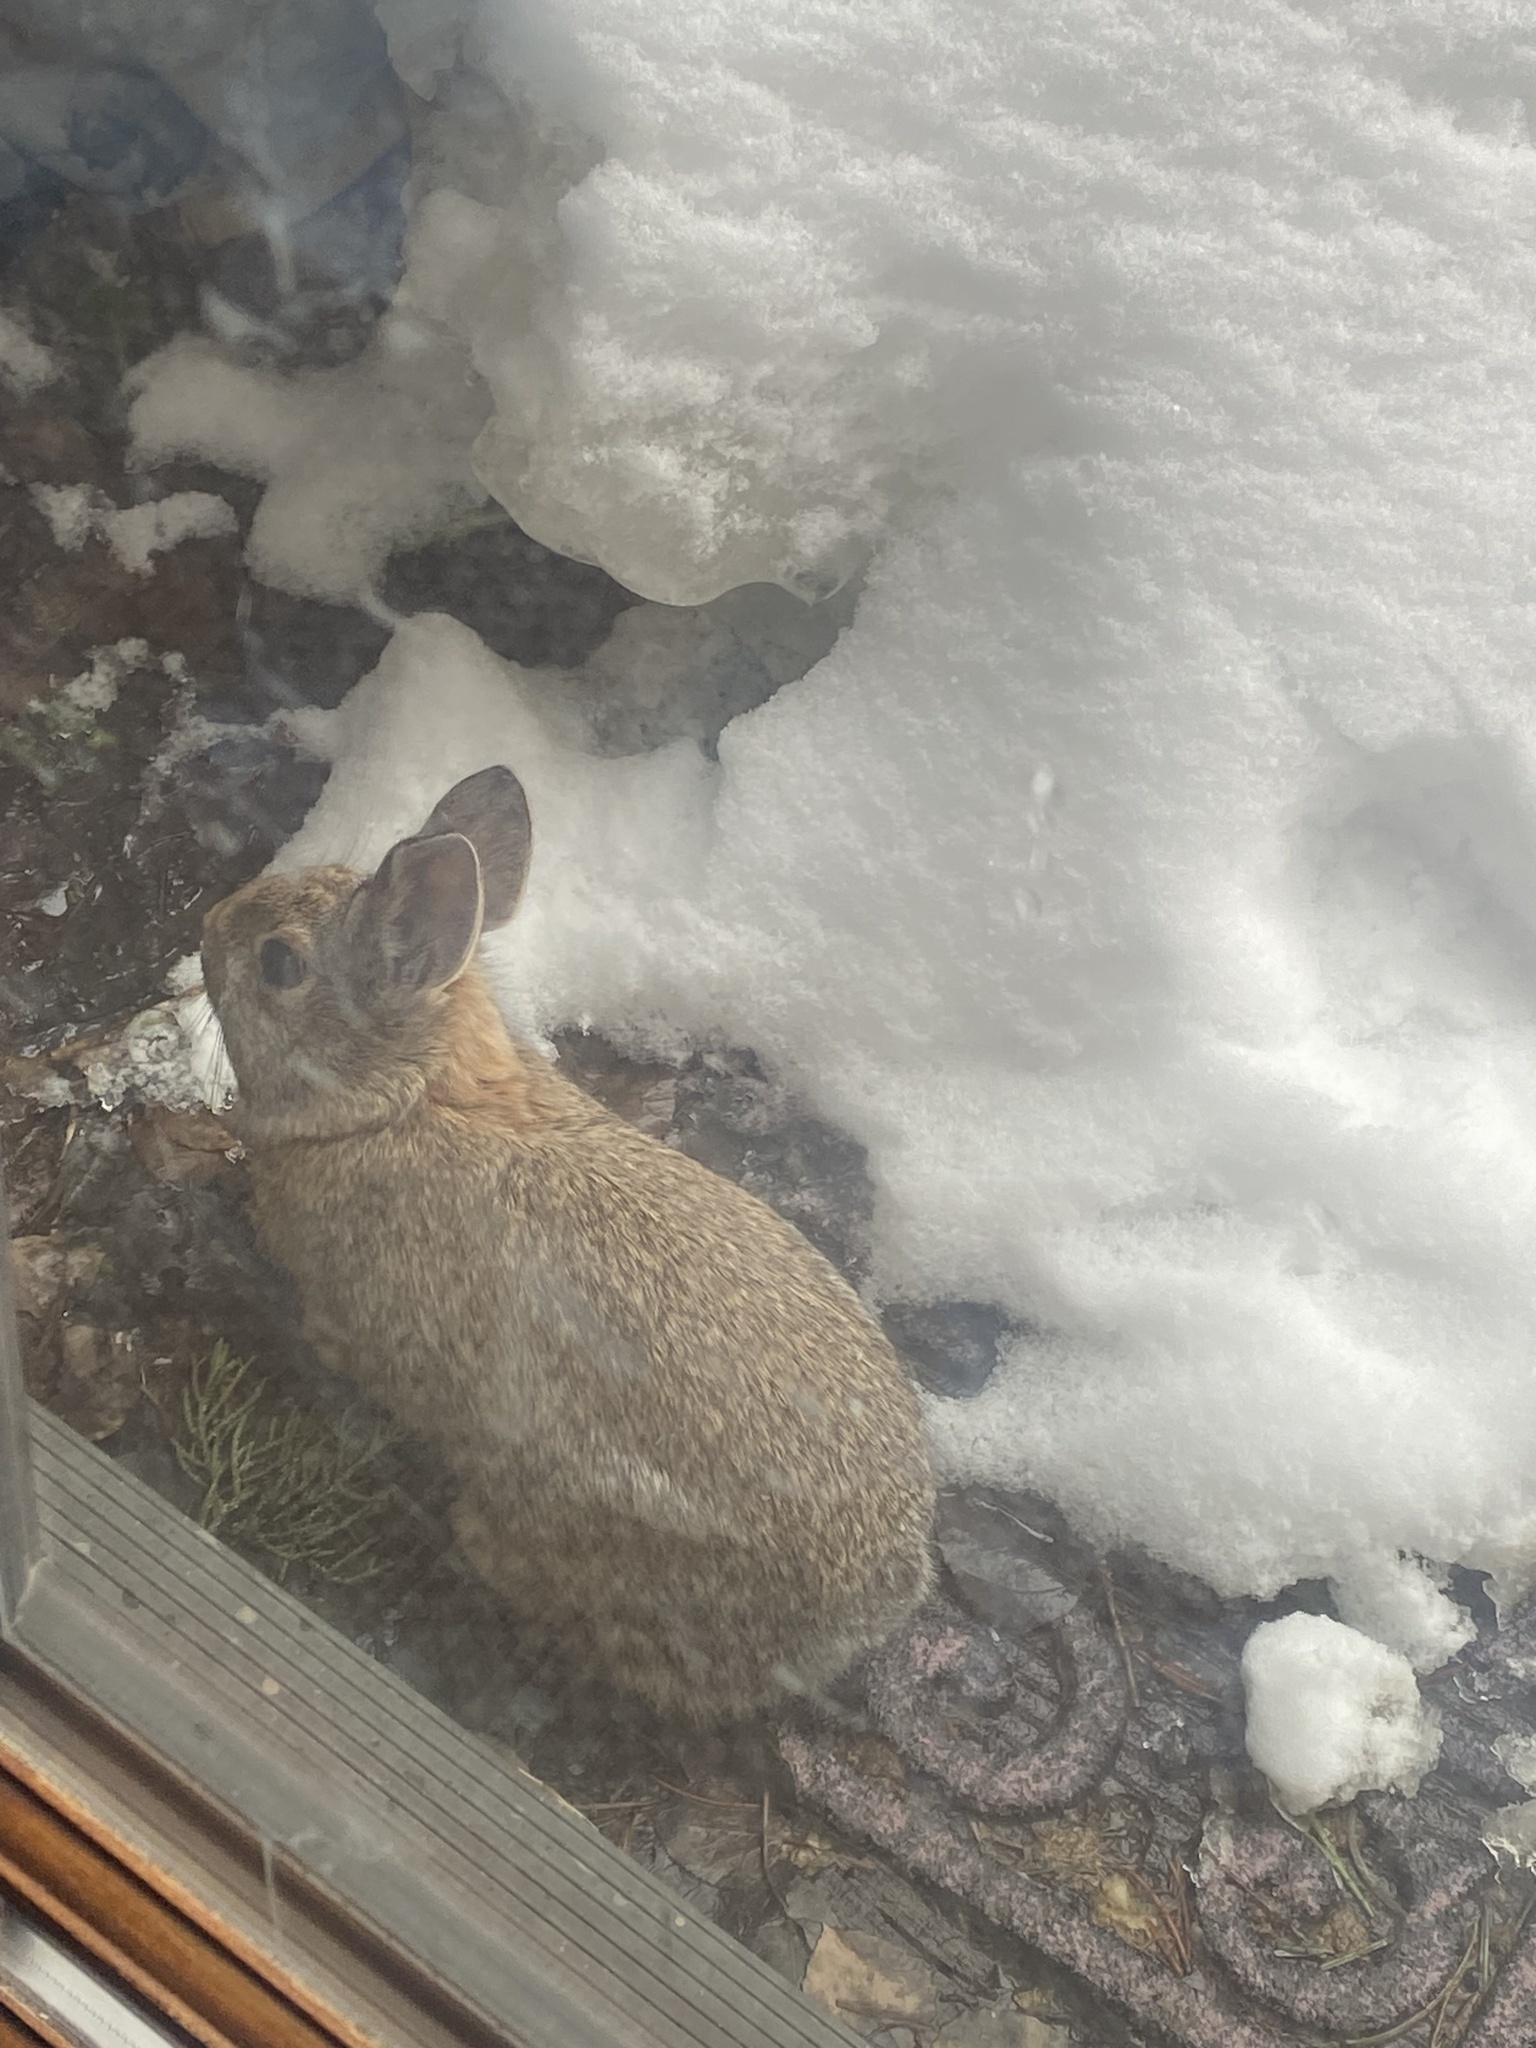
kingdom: Animalia
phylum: Chordata
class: Mammalia
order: Lagomorpha
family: Leporidae
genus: Sylvilagus
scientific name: Sylvilagus nuttallii
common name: Mountain cottontail
